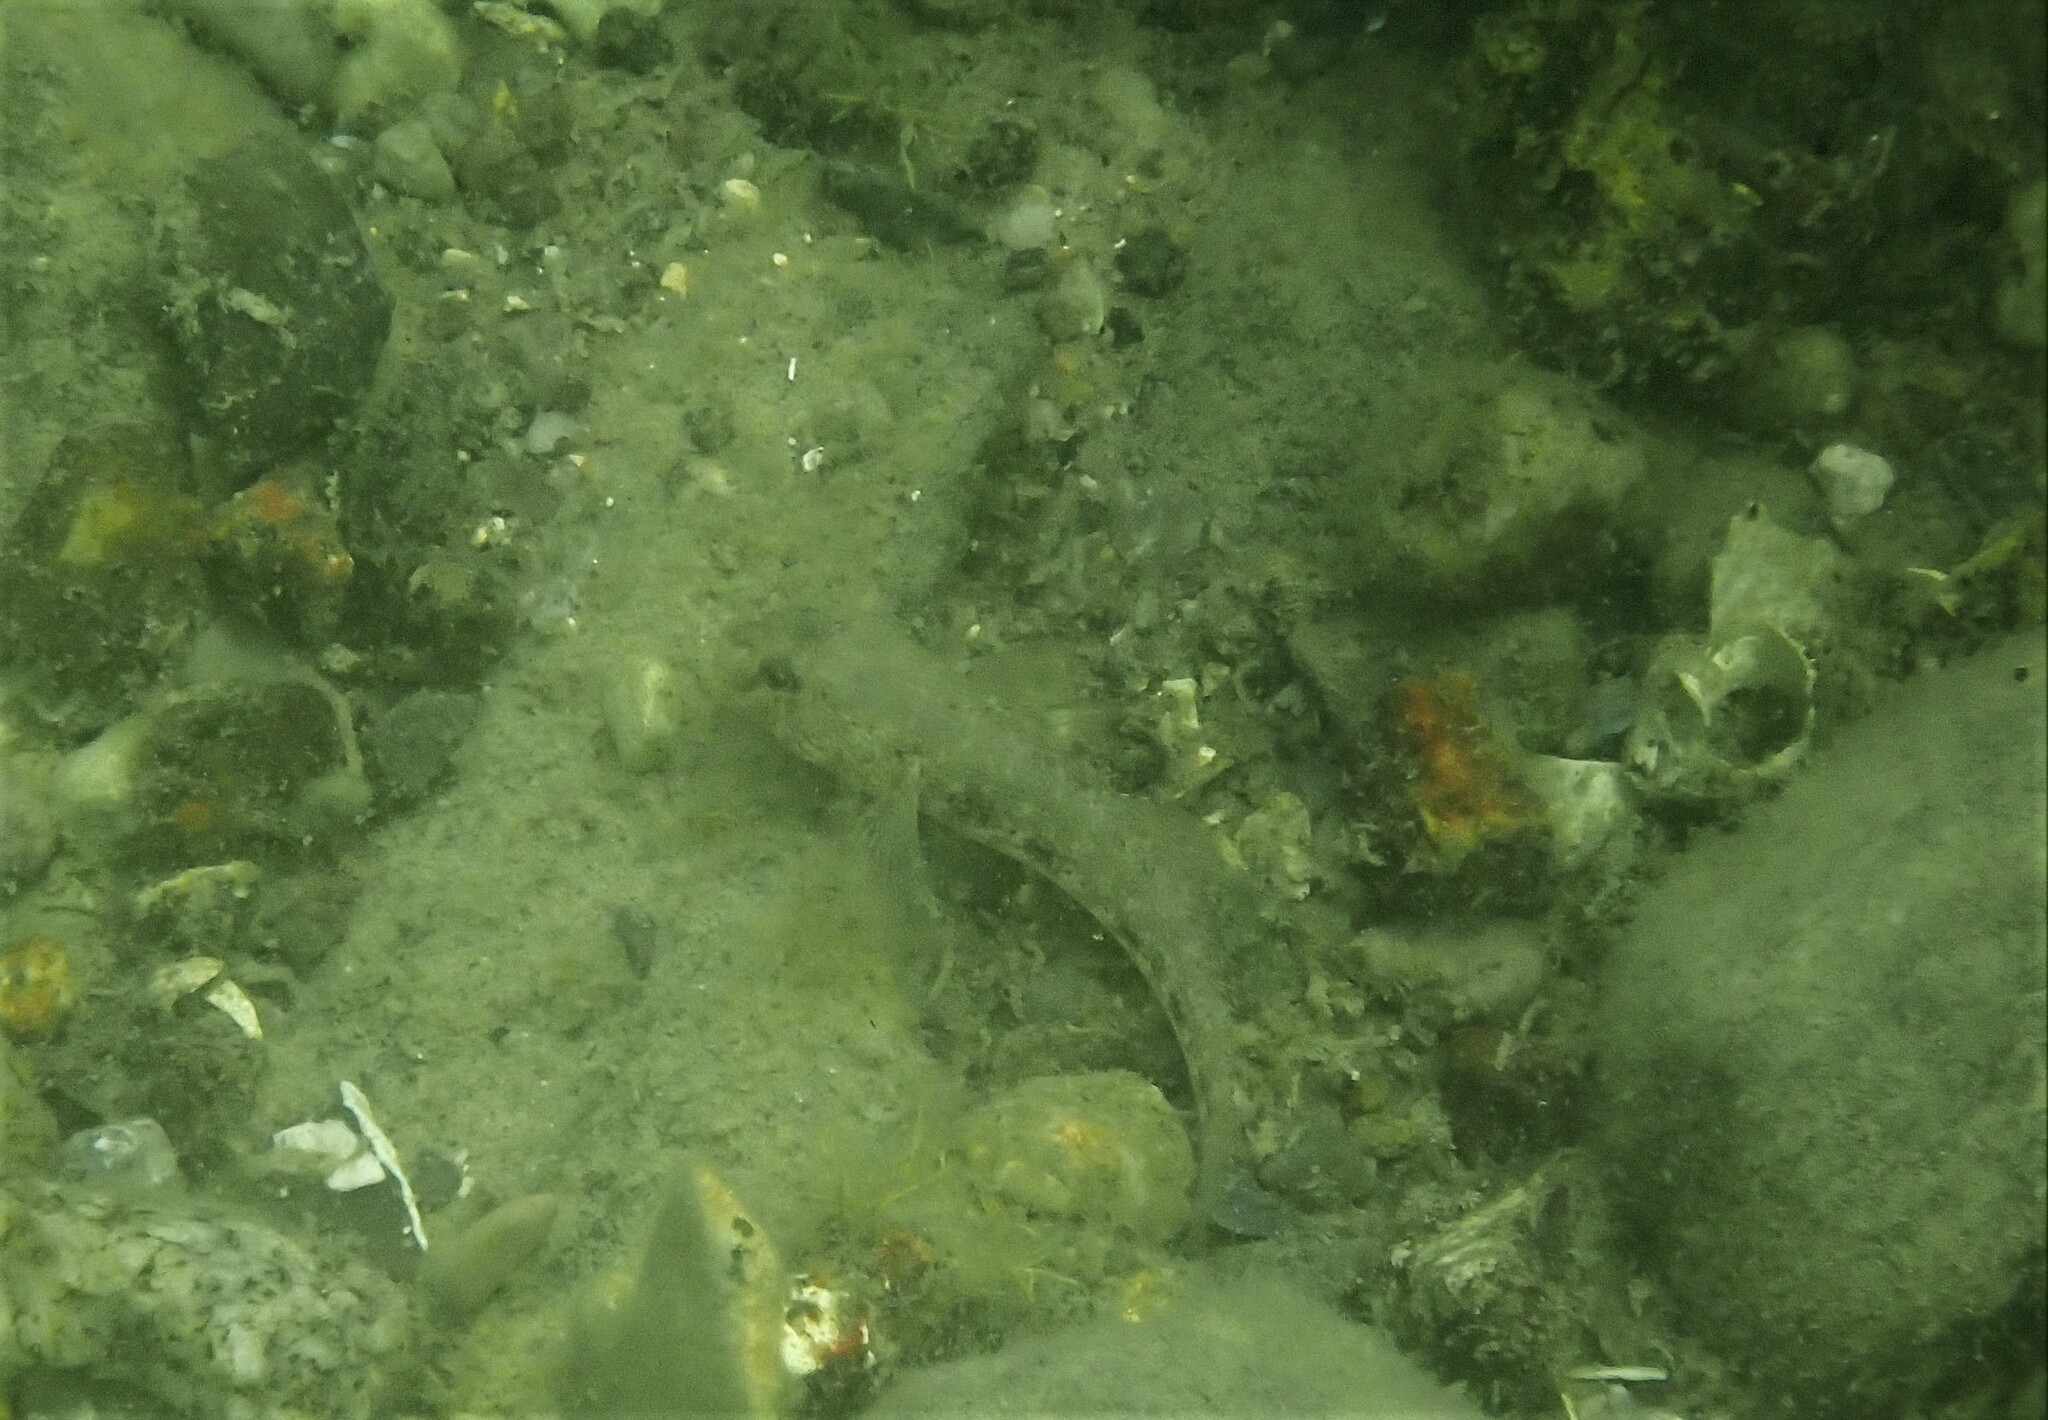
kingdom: Animalia
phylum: Chordata
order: Perciformes
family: Gobiidae
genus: Gobius
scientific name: Gobius niger
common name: Black goby
